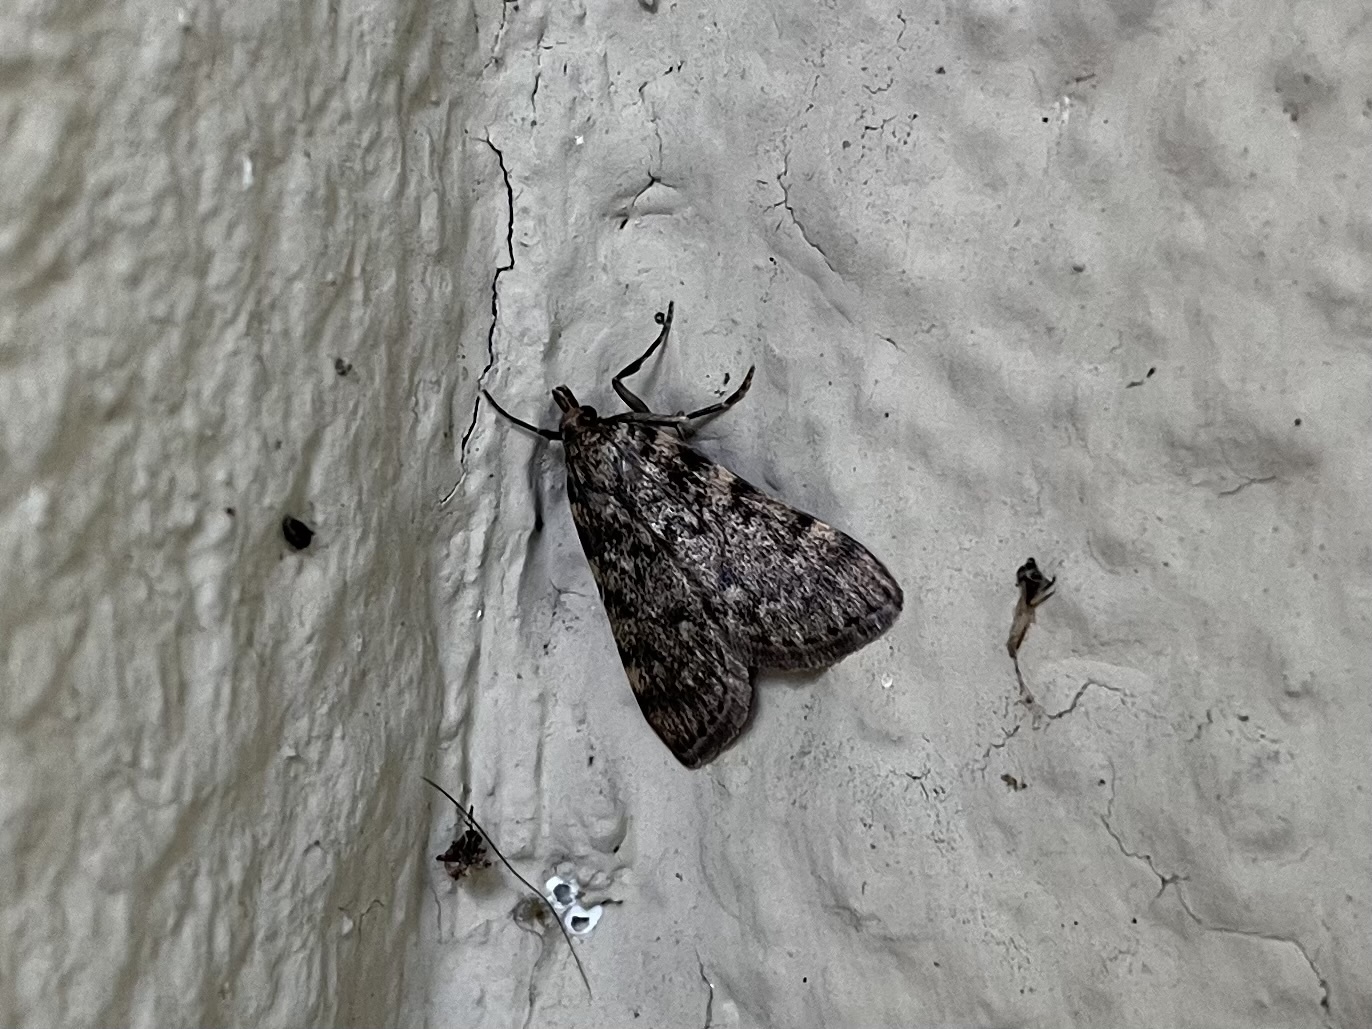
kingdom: Animalia
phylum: Arthropoda
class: Insecta
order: Lepidoptera
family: Pyralidae
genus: Aglossa
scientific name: Aglossa pinguinalis
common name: Large tabby
